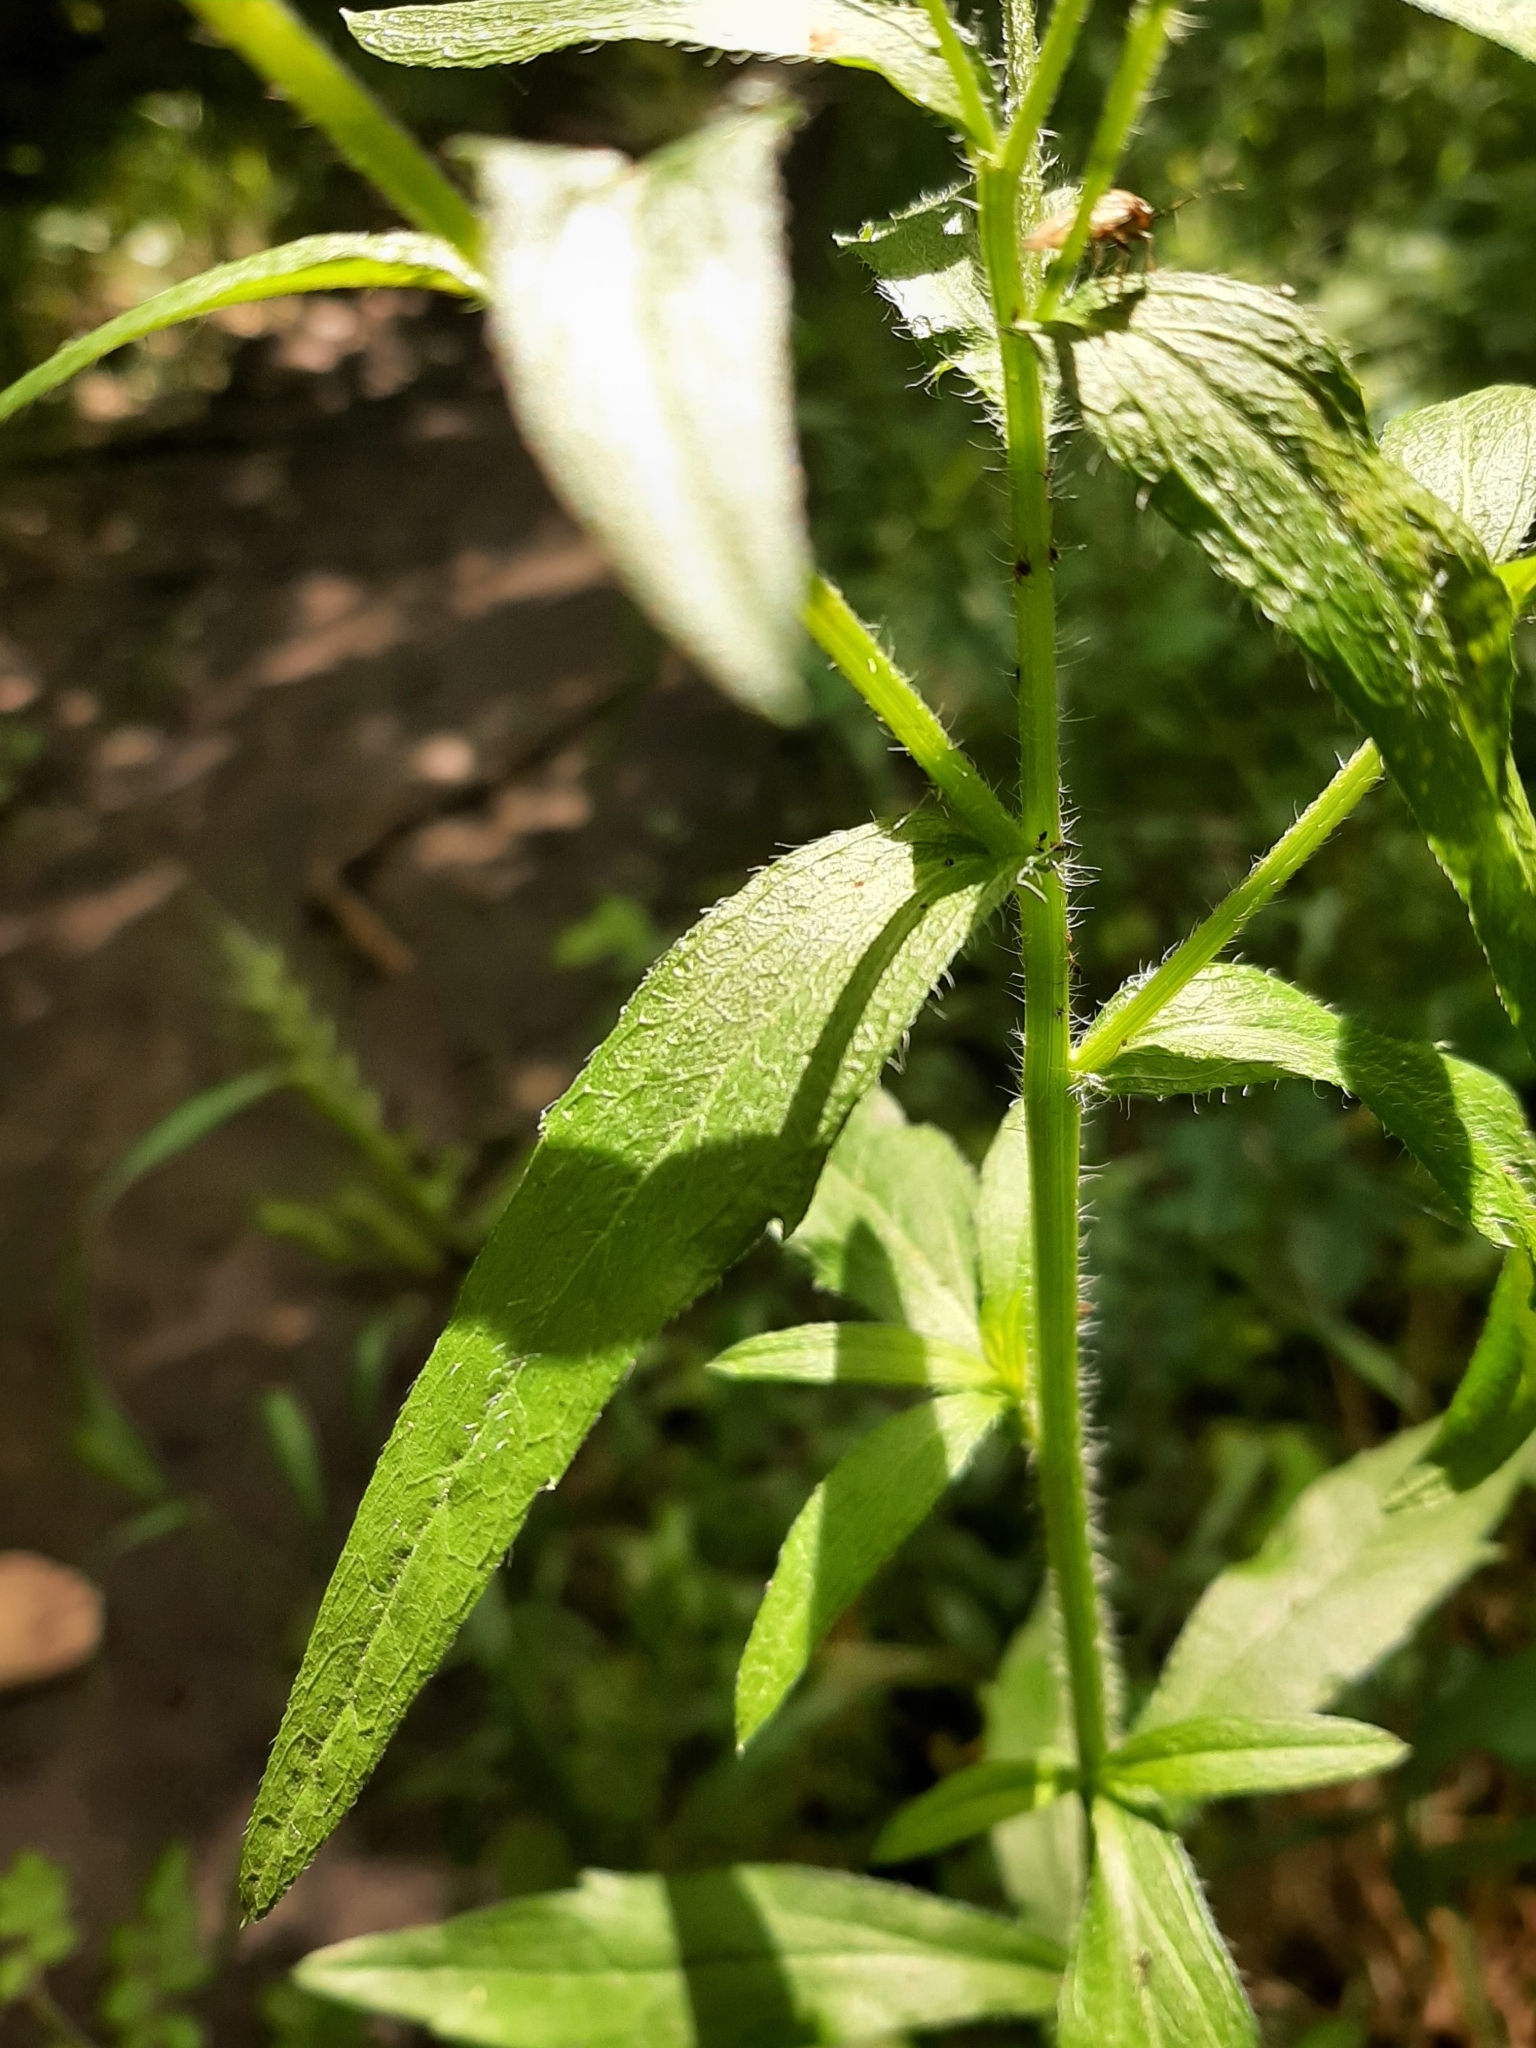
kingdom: Plantae
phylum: Tracheophyta
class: Magnoliopsida
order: Asterales
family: Asteraceae
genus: Erigeron
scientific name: Erigeron annuus
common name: Tall fleabane
